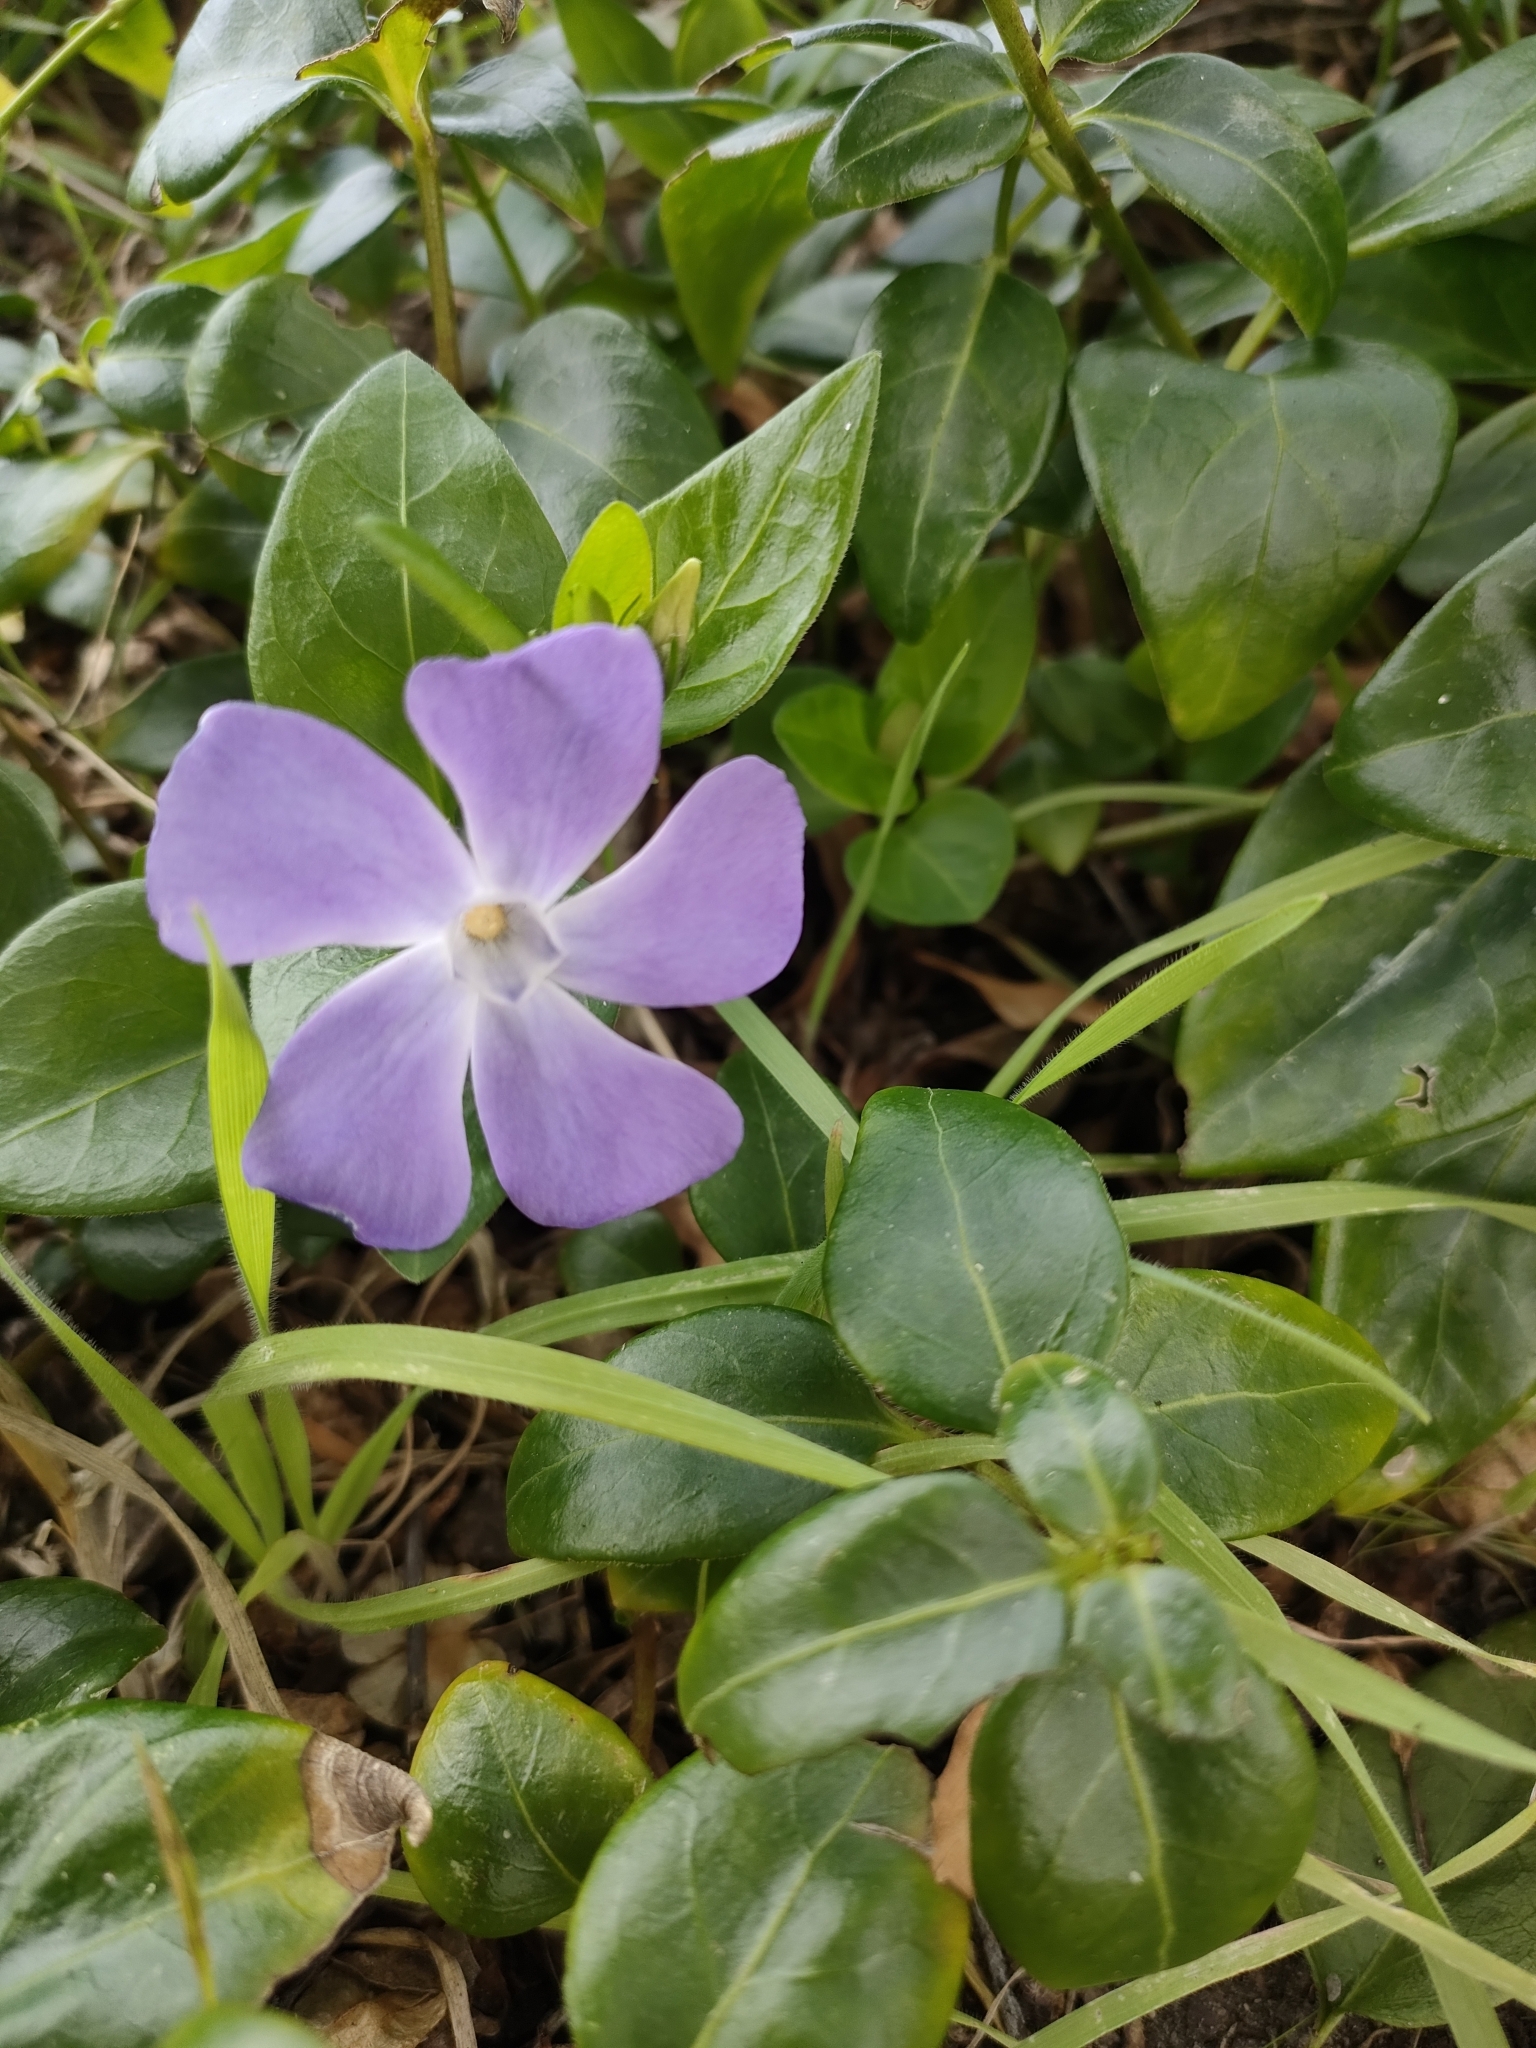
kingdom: Plantae
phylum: Tracheophyta
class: Magnoliopsida
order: Gentianales
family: Apocynaceae
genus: Vinca
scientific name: Vinca major
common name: Greater periwinkle
